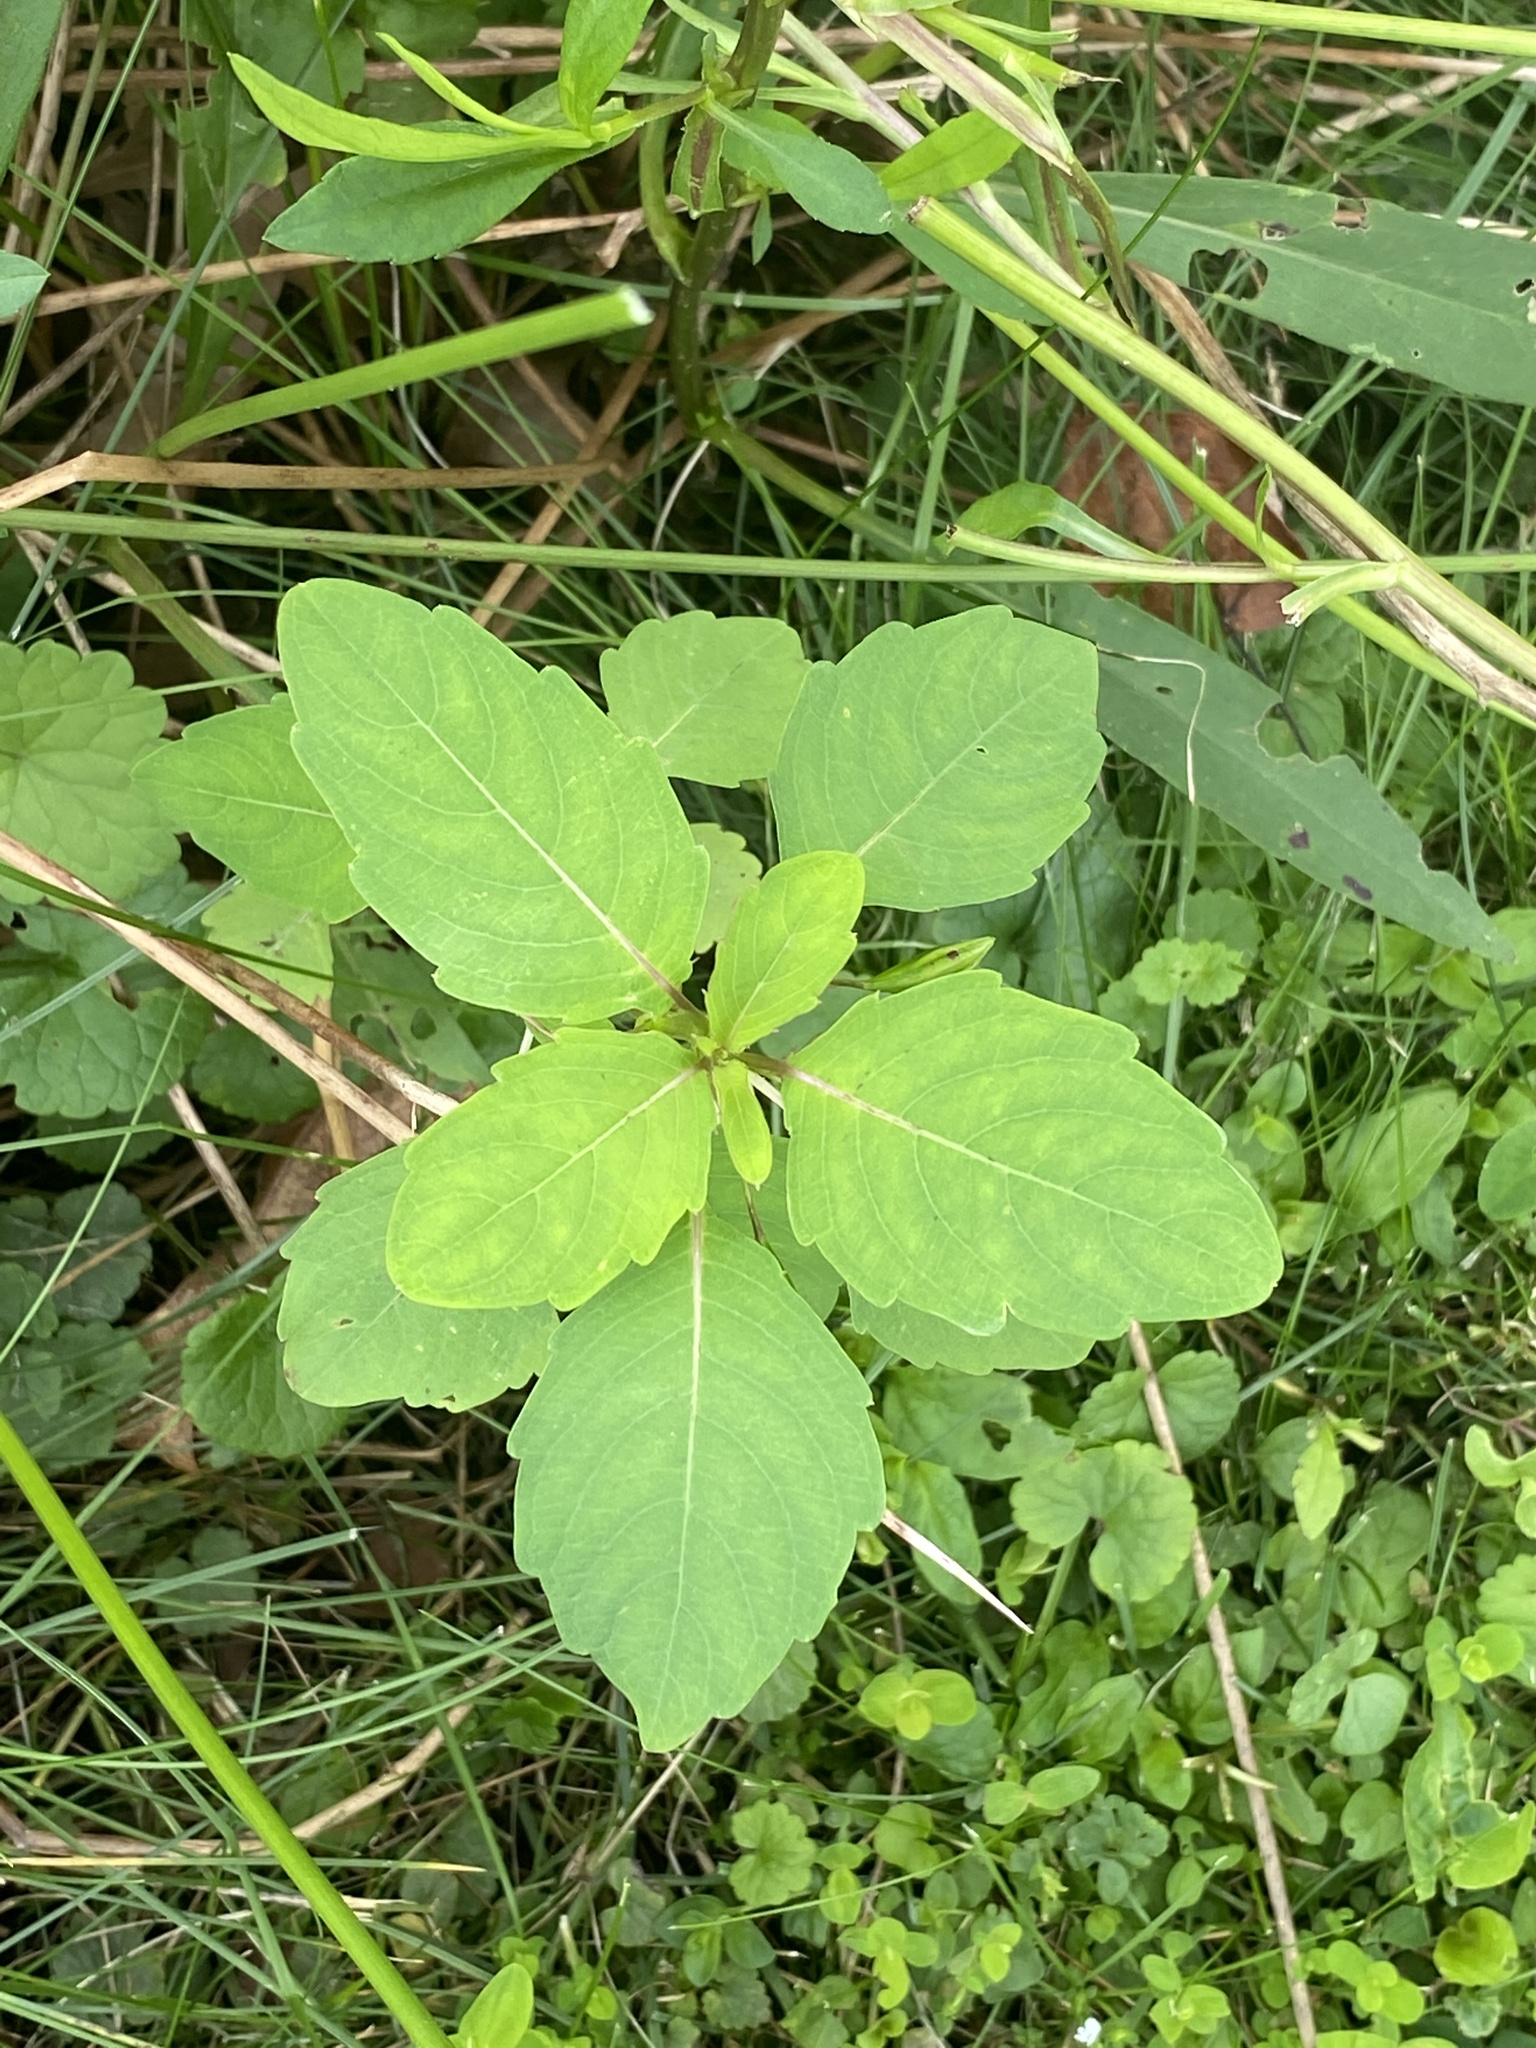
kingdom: Plantae
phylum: Tracheophyta
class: Magnoliopsida
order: Ericales
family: Balsaminaceae
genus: Impatiens
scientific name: Impatiens capensis
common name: Orange balsam
